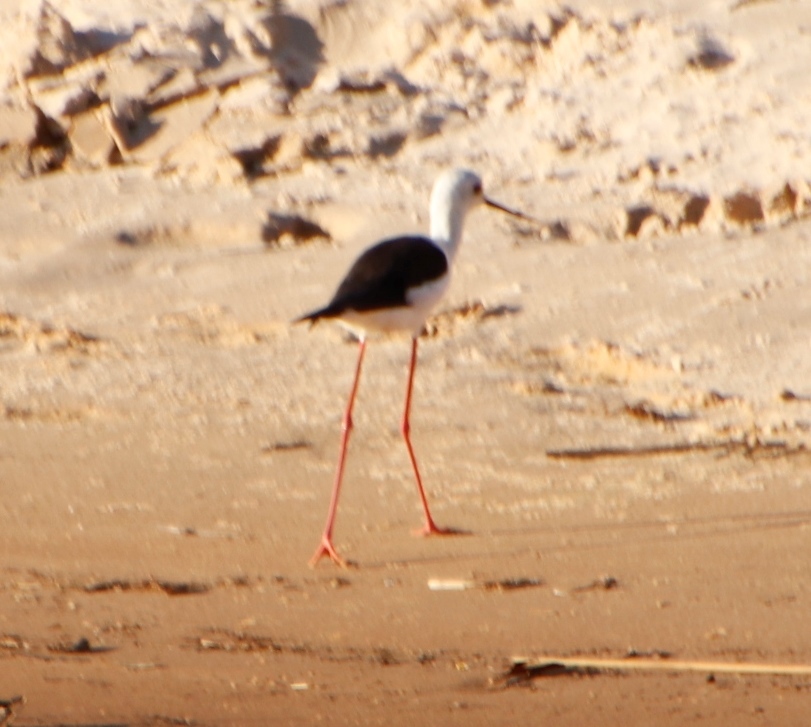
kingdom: Animalia
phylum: Chordata
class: Aves
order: Charadriiformes
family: Recurvirostridae
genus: Himantopus
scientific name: Himantopus himantopus
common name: Black-winged stilt
